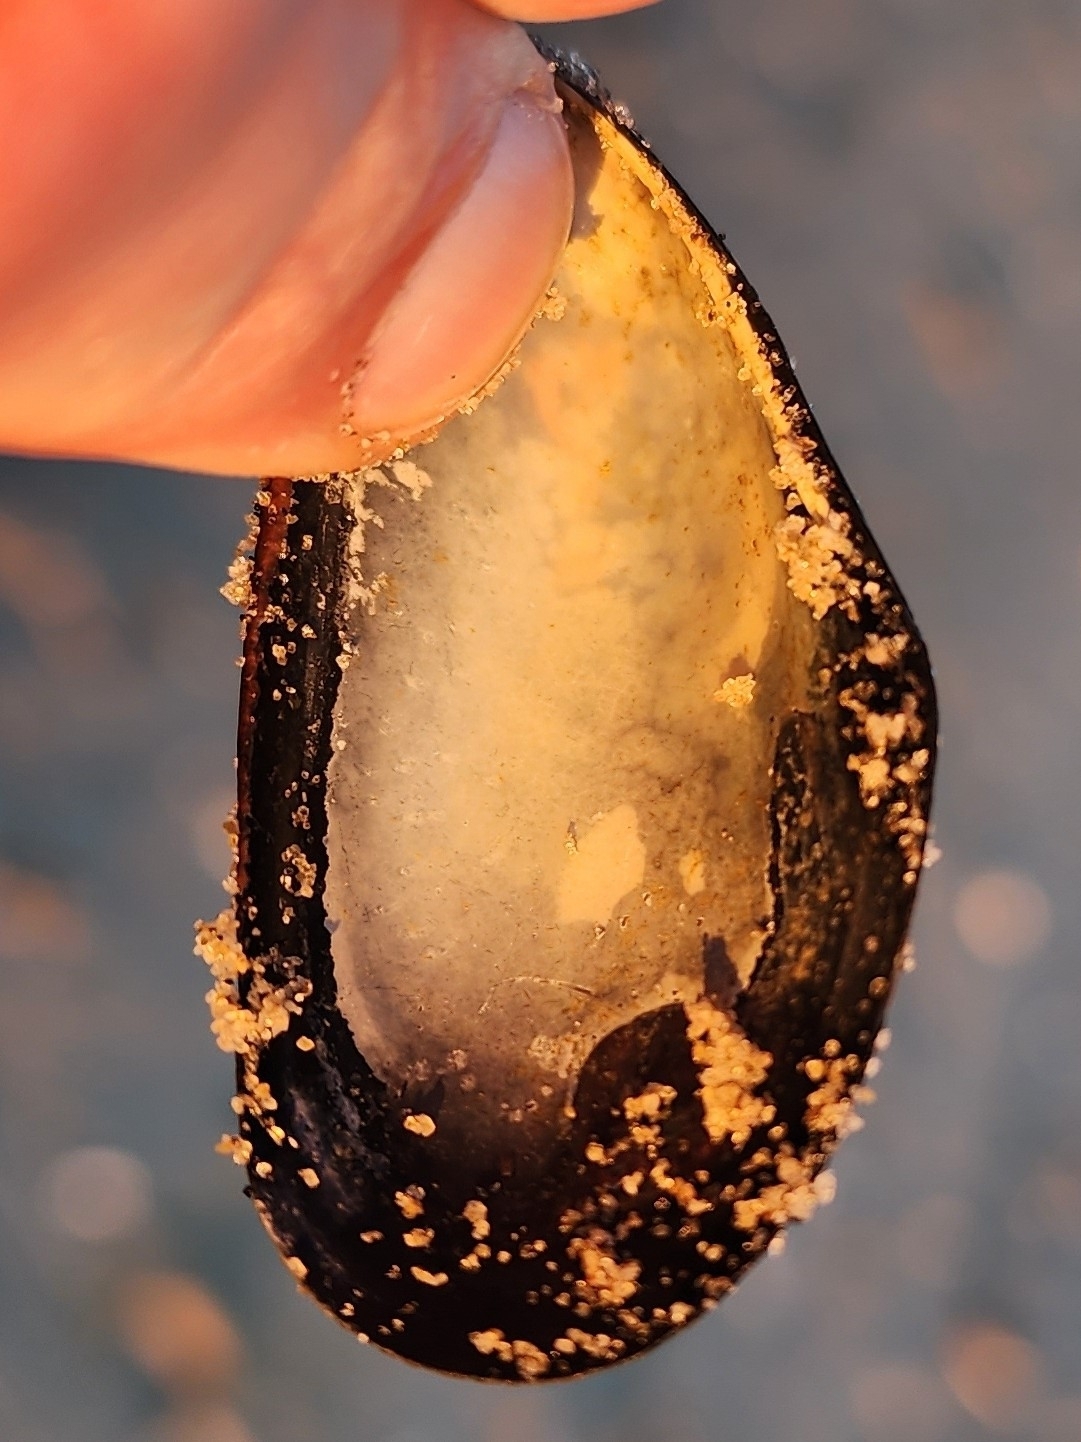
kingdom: Animalia
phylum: Mollusca
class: Bivalvia
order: Mytilida
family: Mytilidae
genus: Mytilus
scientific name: Mytilus edulis
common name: Blue mussel
